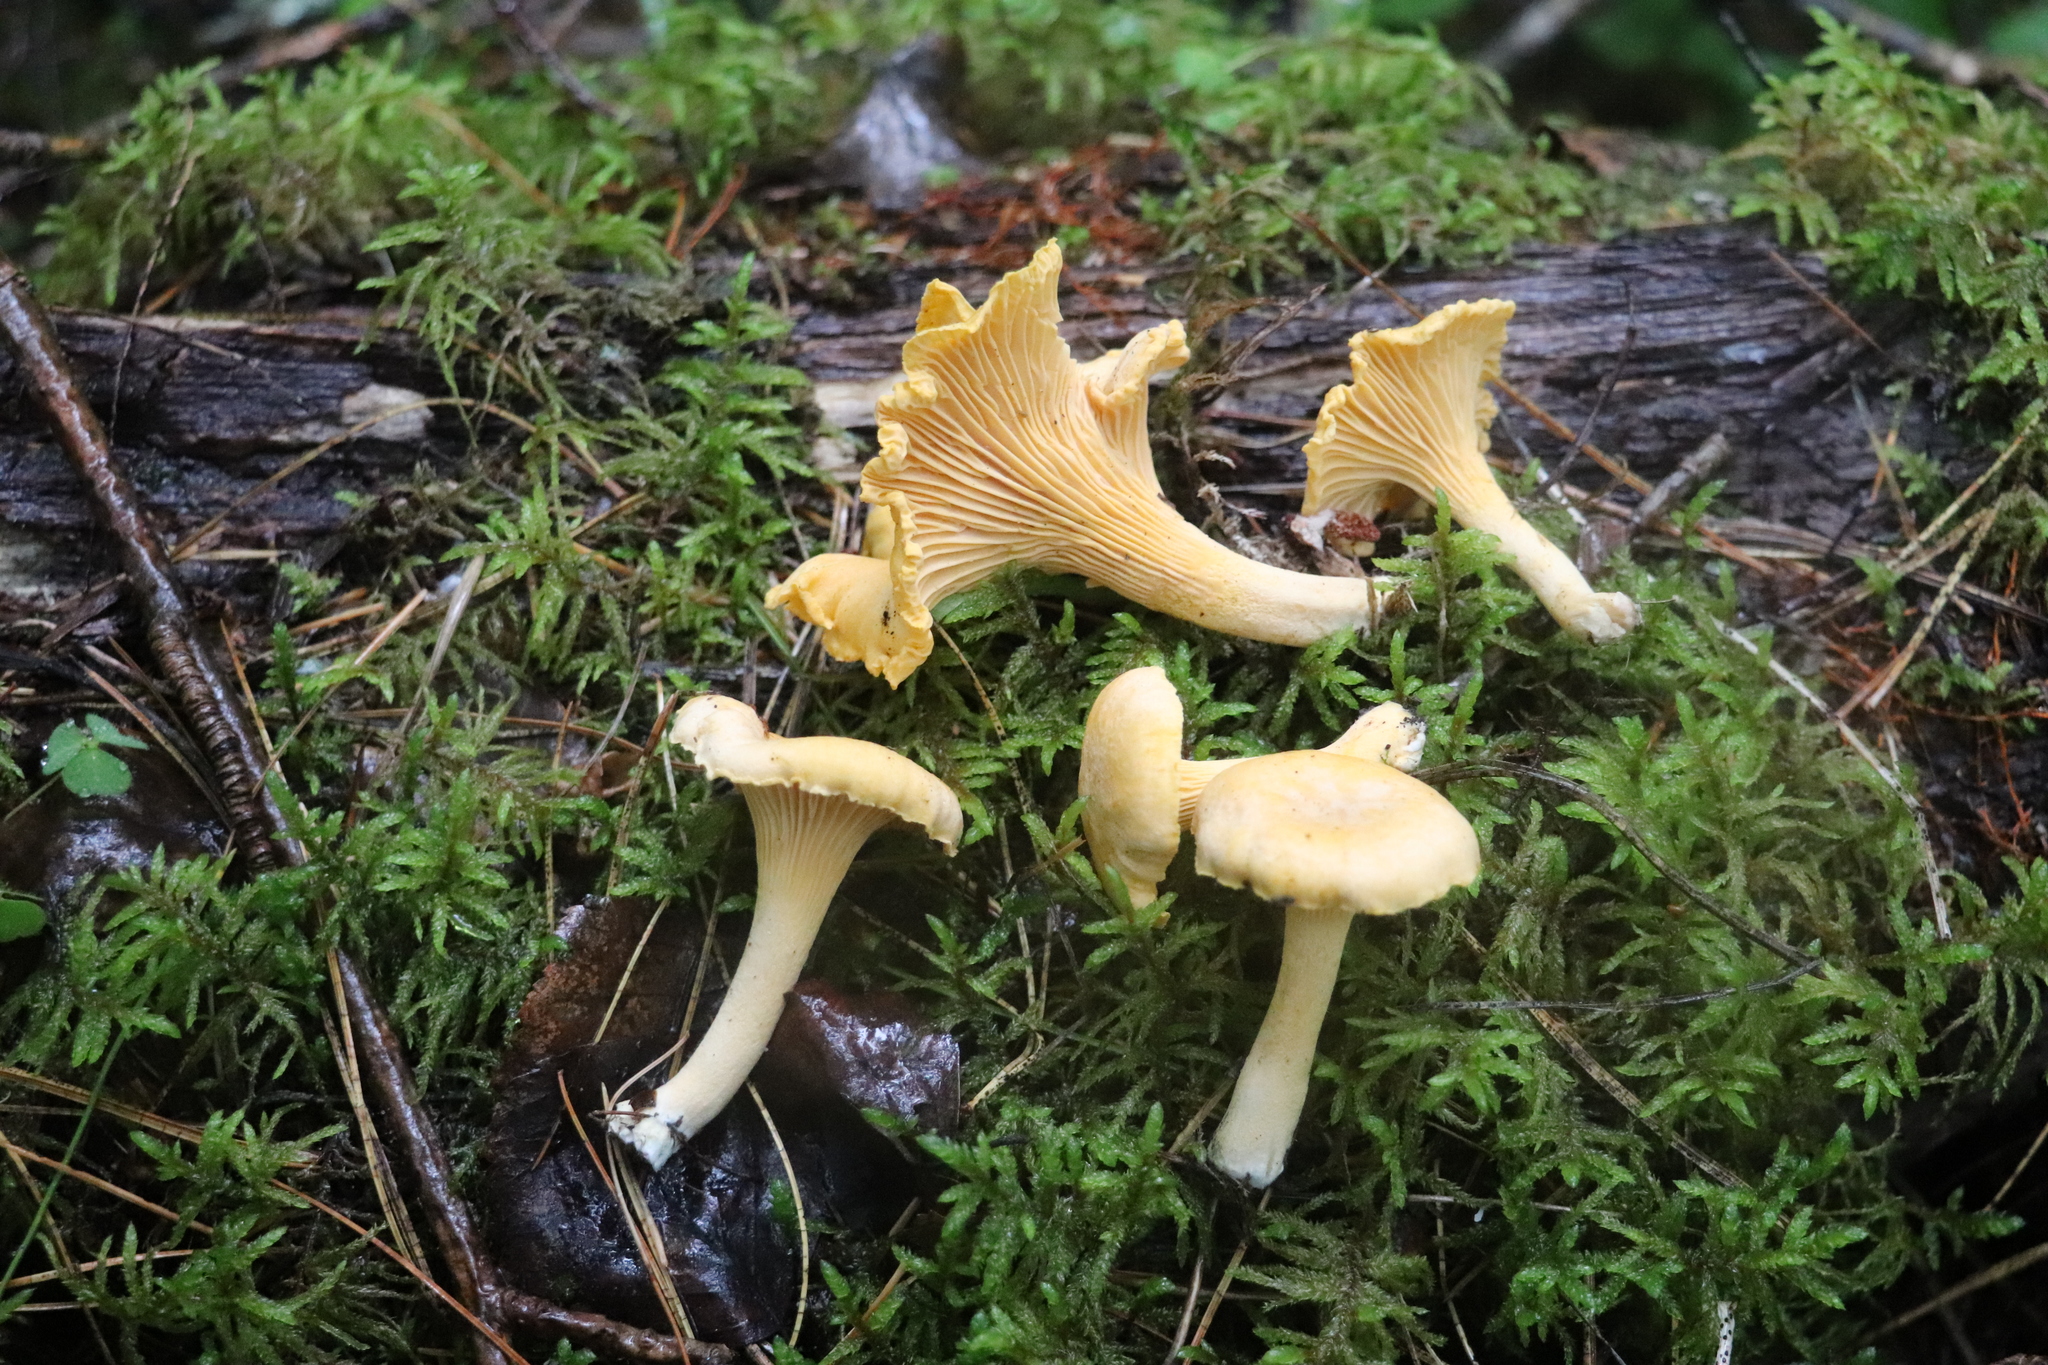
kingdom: Fungi
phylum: Basidiomycota
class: Agaricomycetes
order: Cantharellales
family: Hydnaceae
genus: Cantharellus
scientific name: Cantharellus cibarius
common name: Chanterelle
